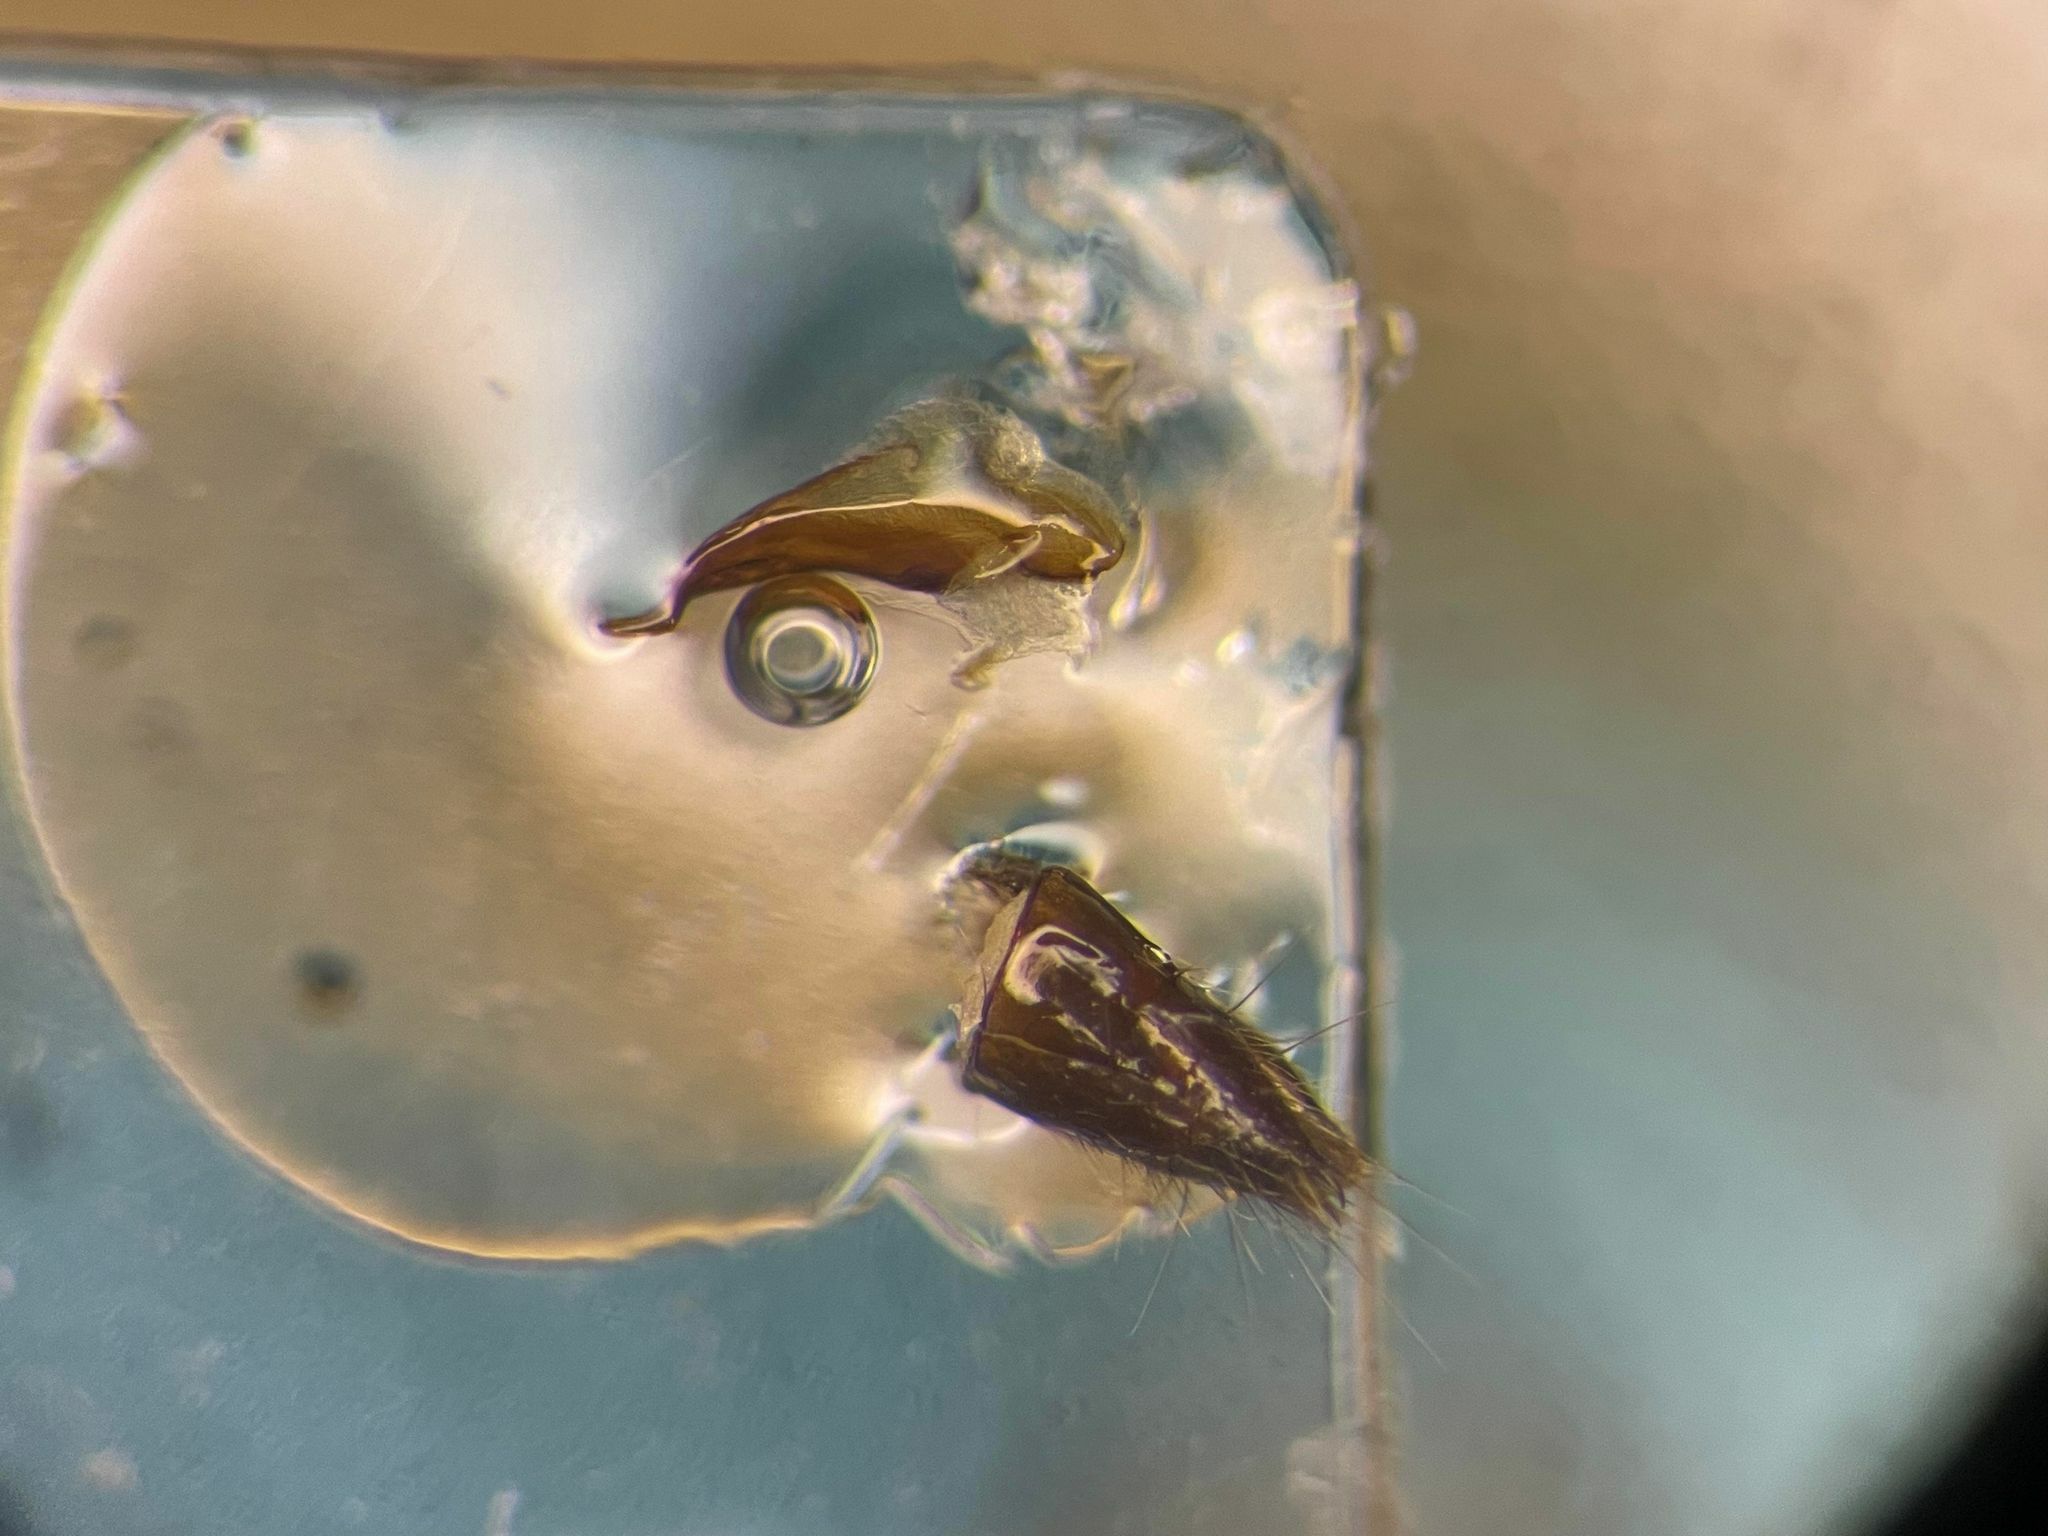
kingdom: Animalia
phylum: Arthropoda
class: Insecta
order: Coleoptera
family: Staphylinidae
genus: Lathrobium
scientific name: Lathrobium fauveli
